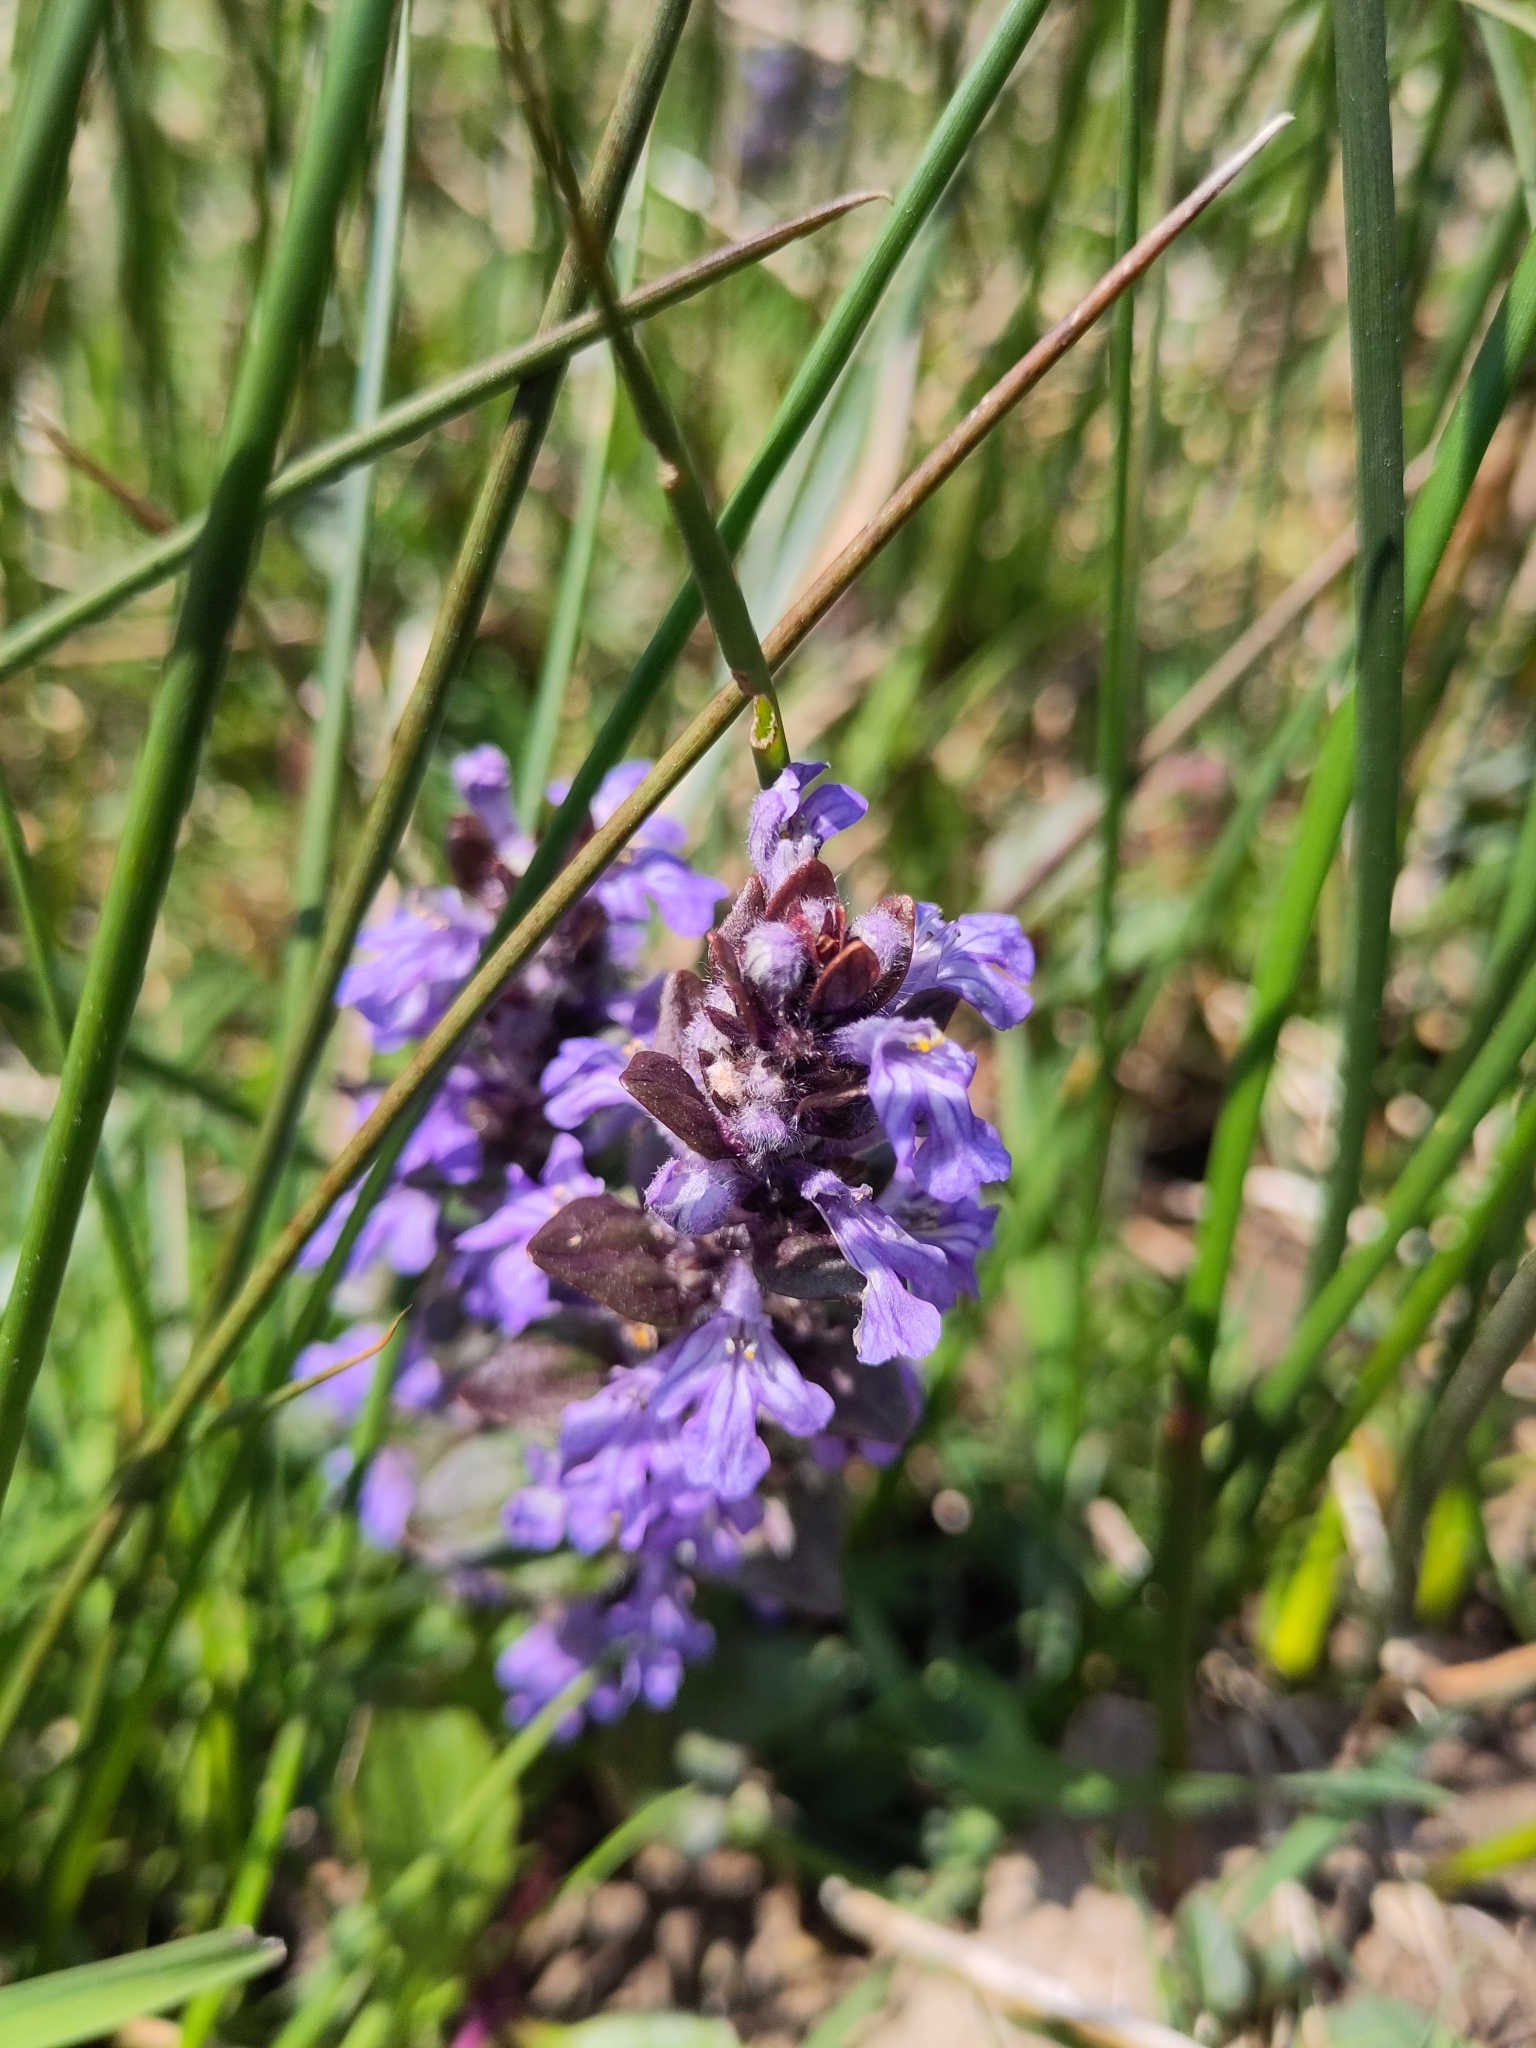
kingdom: Plantae
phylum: Tracheophyta
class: Magnoliopsida
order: Lamiales
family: Lamiaceae
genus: Ajuga
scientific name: Ajuga reptans
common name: Bugle
